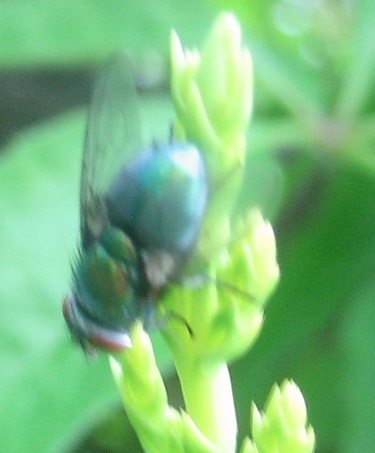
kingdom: Animalia
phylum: Arthropoda
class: Insecta
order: Diptera
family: Calliphoridae
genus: Lucilia
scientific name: Lucilia
